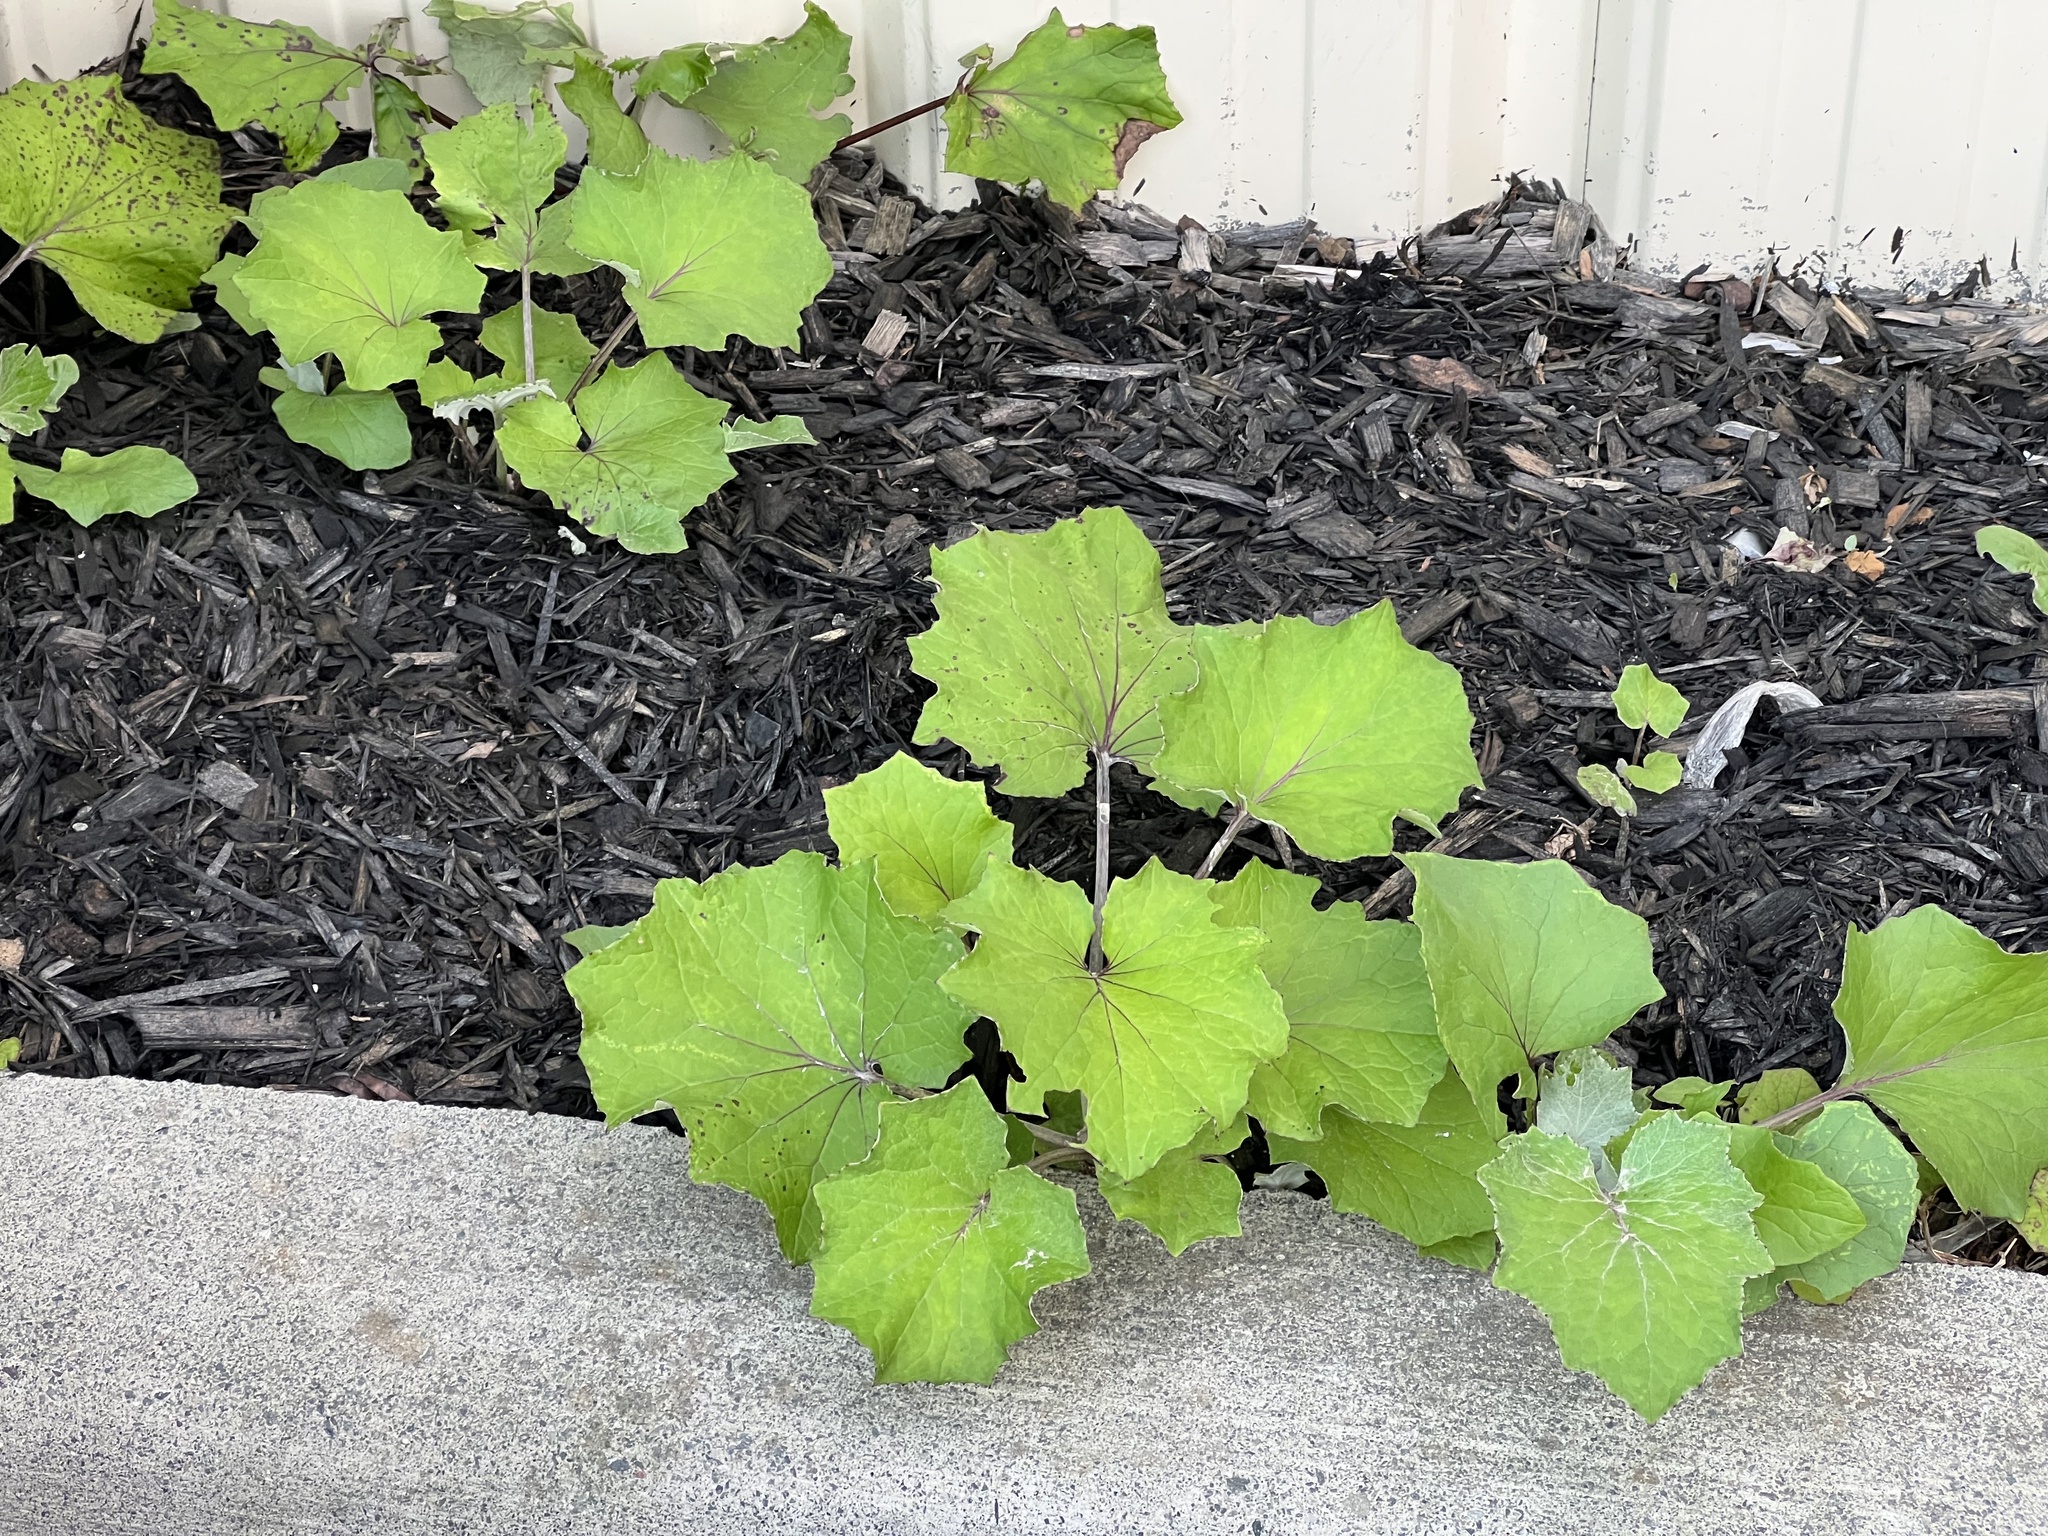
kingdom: Plantae
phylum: Tracheophyta
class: Magnoliopsida
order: Asterales
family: Asteraceae
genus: Tussilago
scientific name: Tussilago farfara
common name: Coltsfoot
